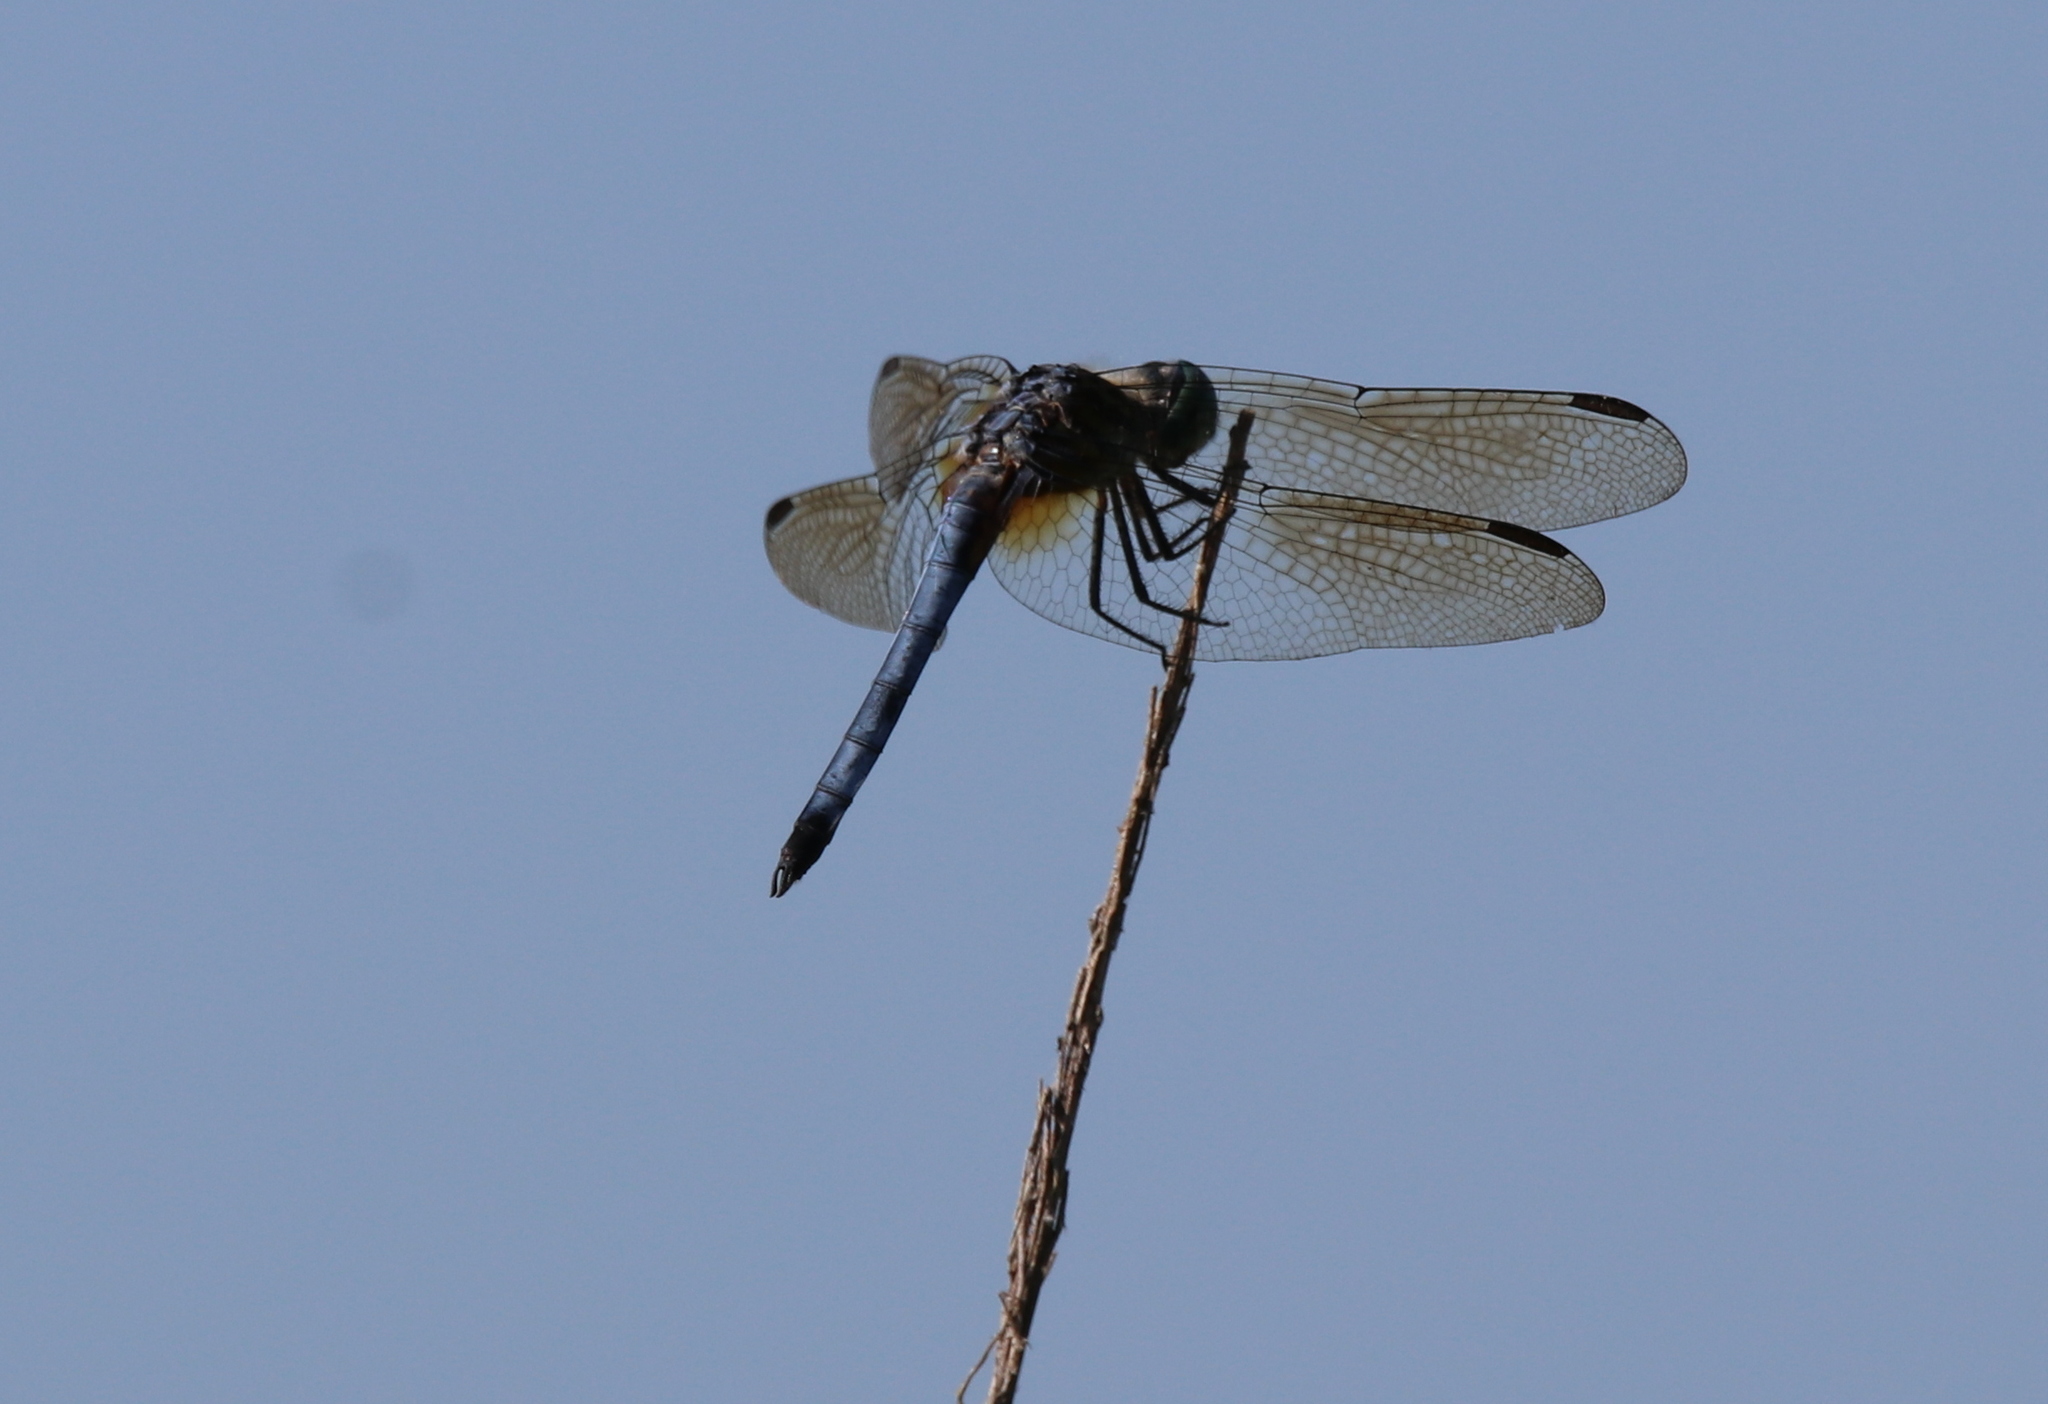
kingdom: Animalia
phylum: Arthropoda
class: Insecta
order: Odonata
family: Libellulidae
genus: Pachydiplax
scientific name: Pachydiplax longipennis
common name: Blue dasher
